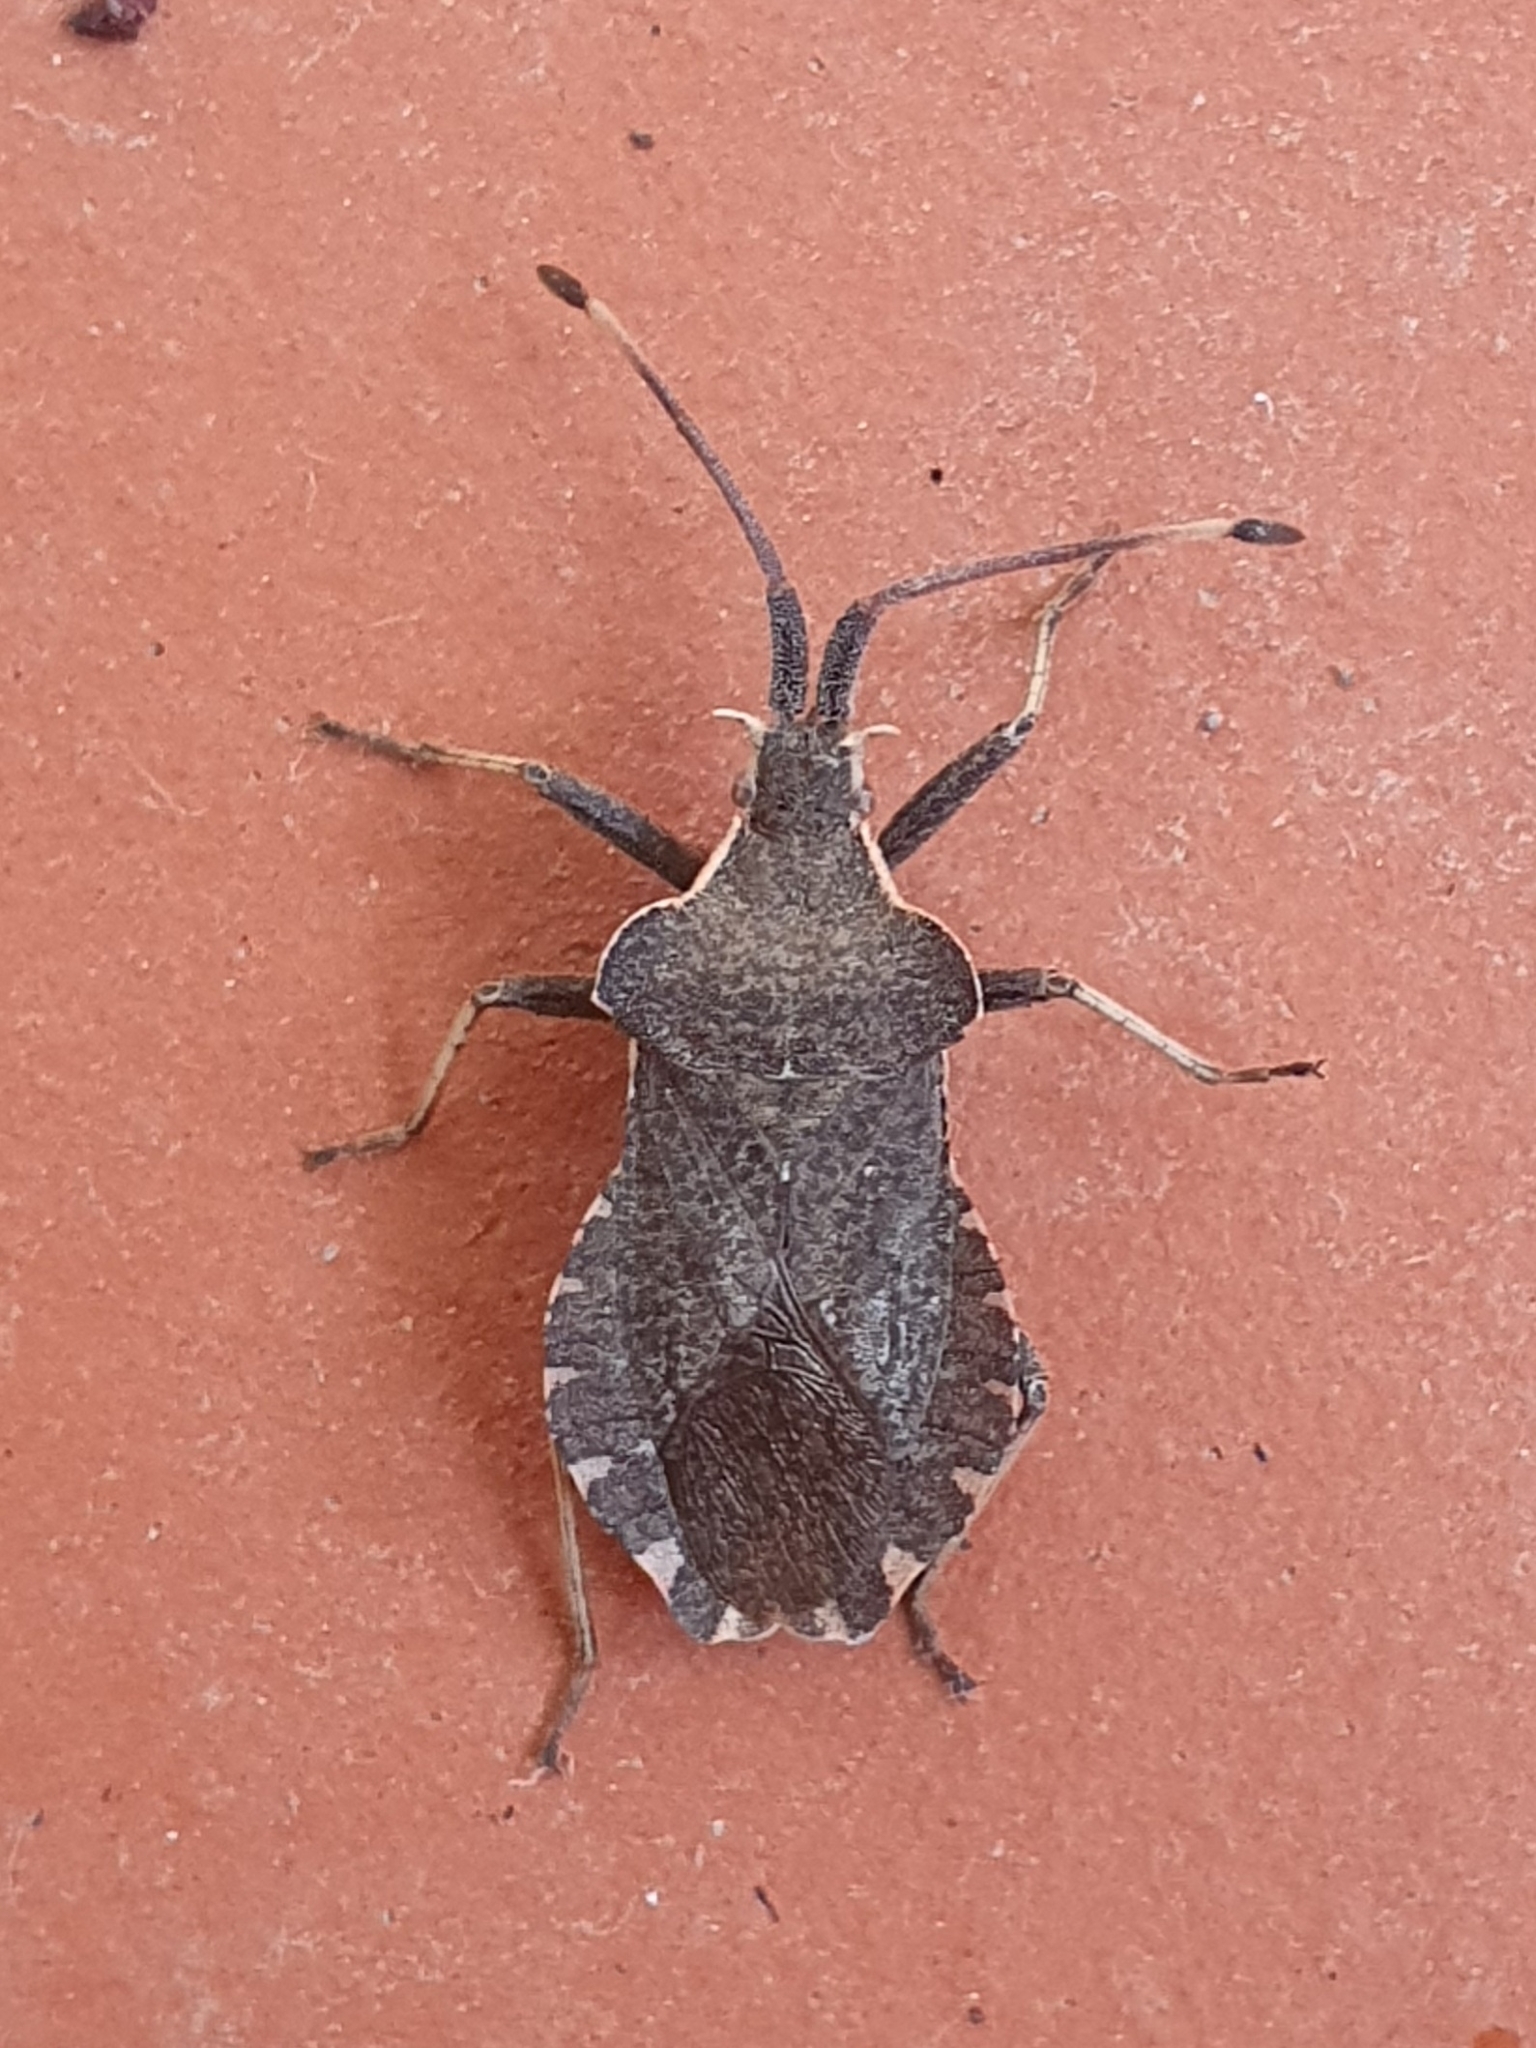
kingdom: Animalia
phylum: Arthropoda
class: Insecta
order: Hemiptera
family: Coreidae
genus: Enoplops
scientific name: Enoplops bos
